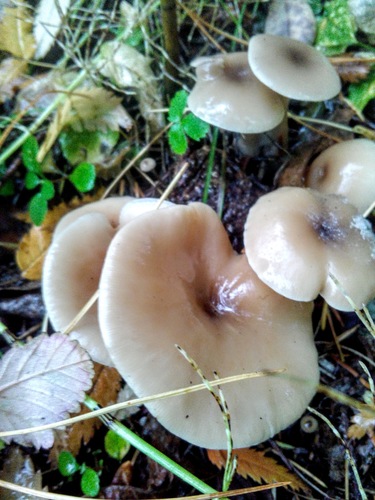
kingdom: Fungi
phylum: Basidiomycota
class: Agaricomycetes
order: Agaricales
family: Tricholomataceae
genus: Clitocybe
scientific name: Clitocybe fragrans
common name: Fragrant funnel
